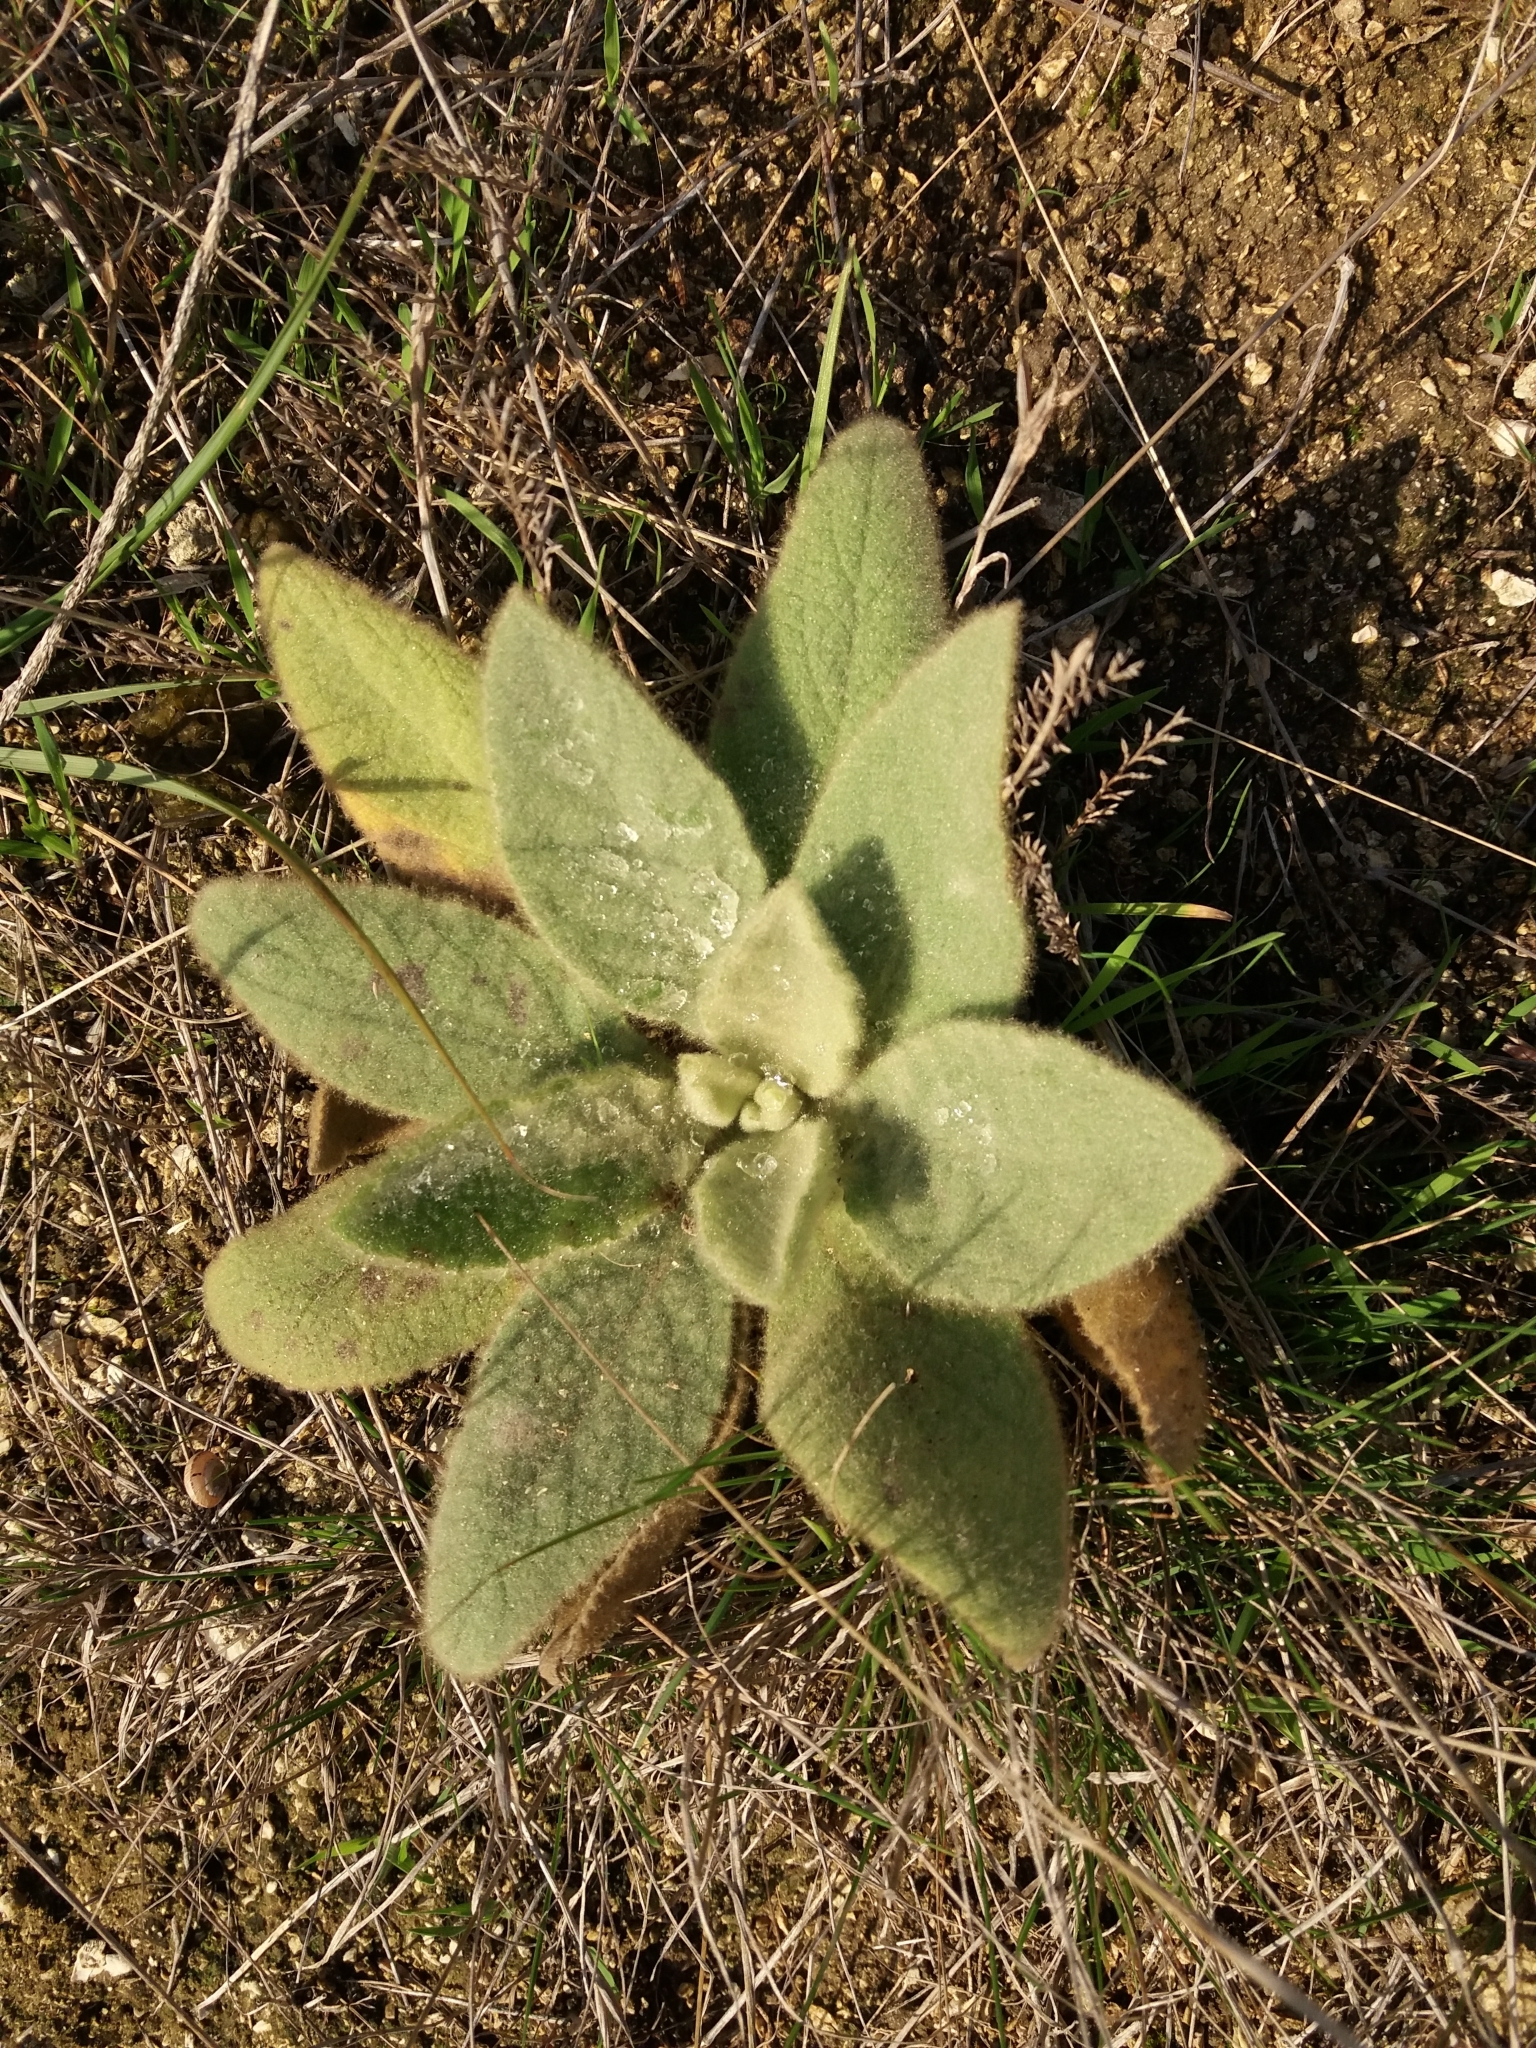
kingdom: Plantae
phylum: Tracheophyta
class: Magnoliopsida
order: Lamiales
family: Scrophulariaceae
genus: Verbascum
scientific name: Verbascum thapsus
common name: Common mullein
